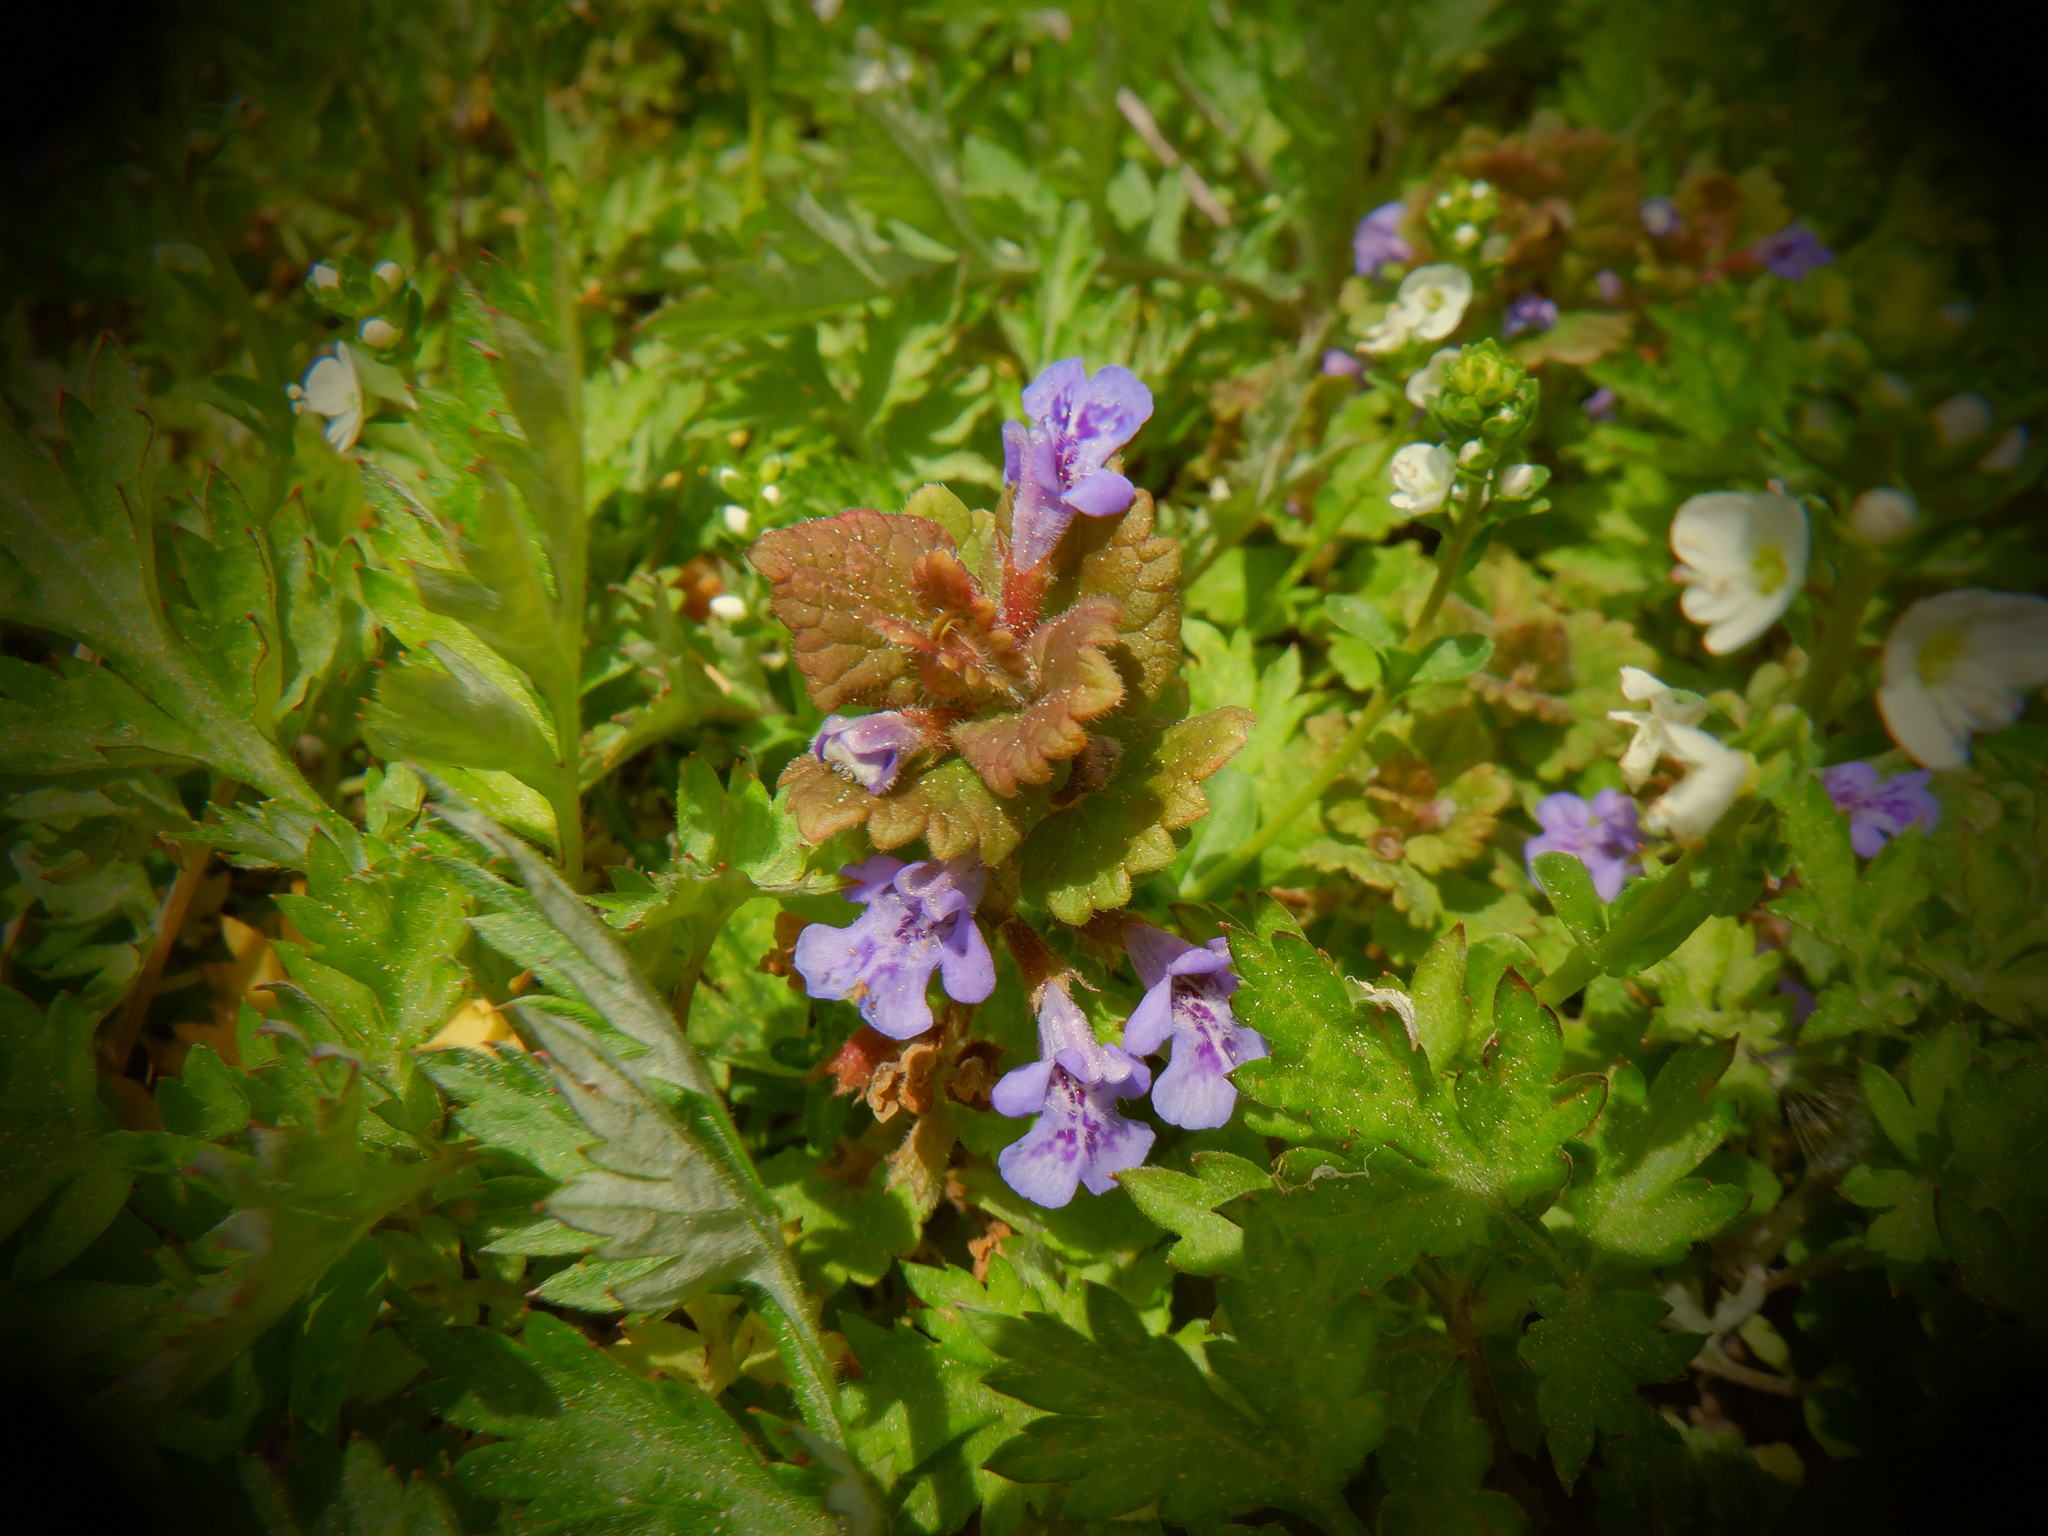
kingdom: Plantae
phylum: Tracheophyta
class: Magnoliopsida
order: Lamiales
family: Lamiaceae
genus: Glechoma
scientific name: Glechoma hederacea
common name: Ground ivy
